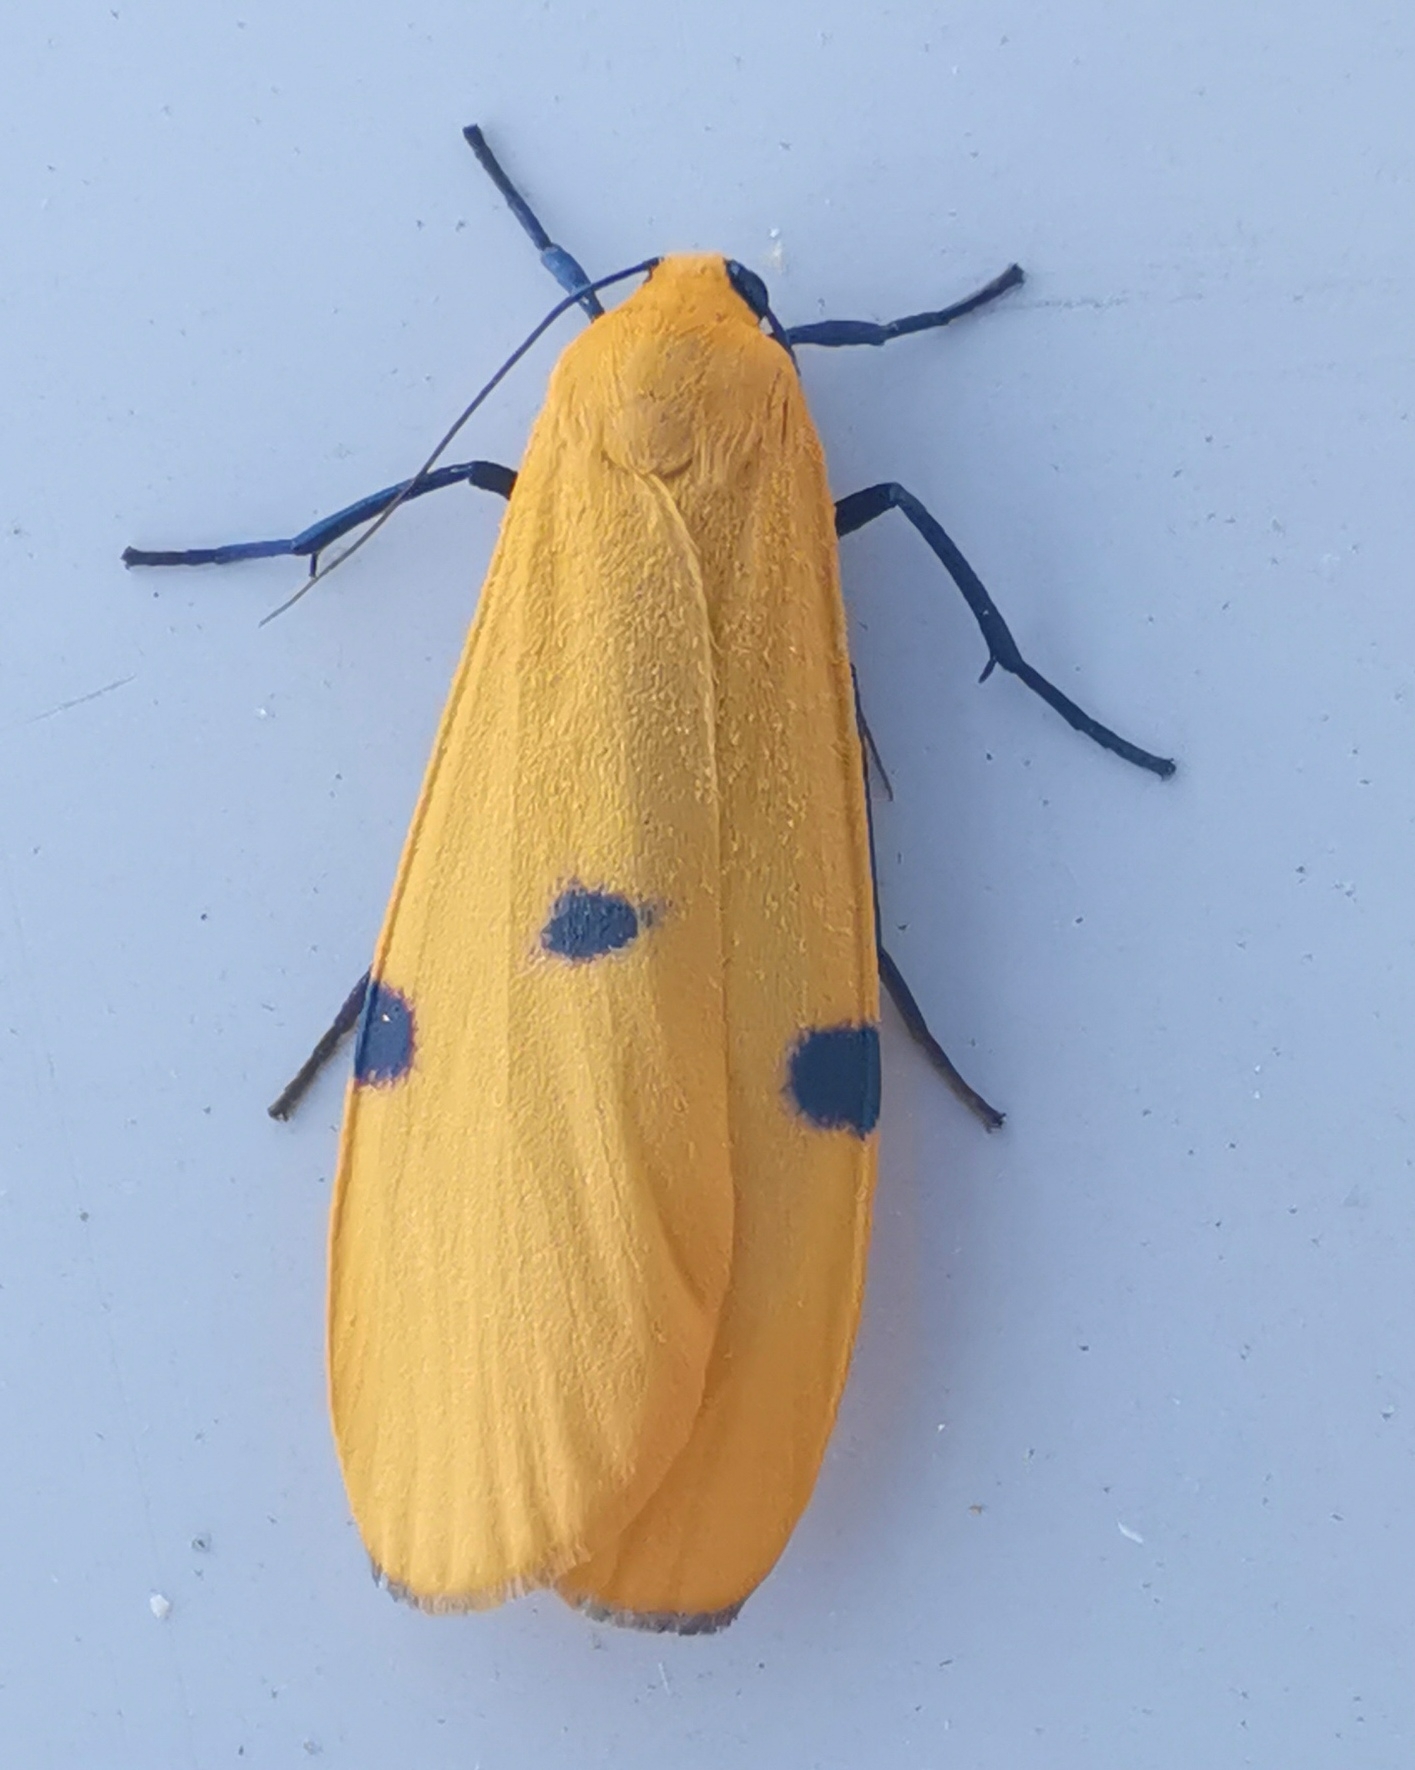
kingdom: Animalia
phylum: Arthropoda
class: Insecta
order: Lepidoptera
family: Erebidae
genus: Lithosia
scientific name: Lithosia quadra
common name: Four-spotted footman
